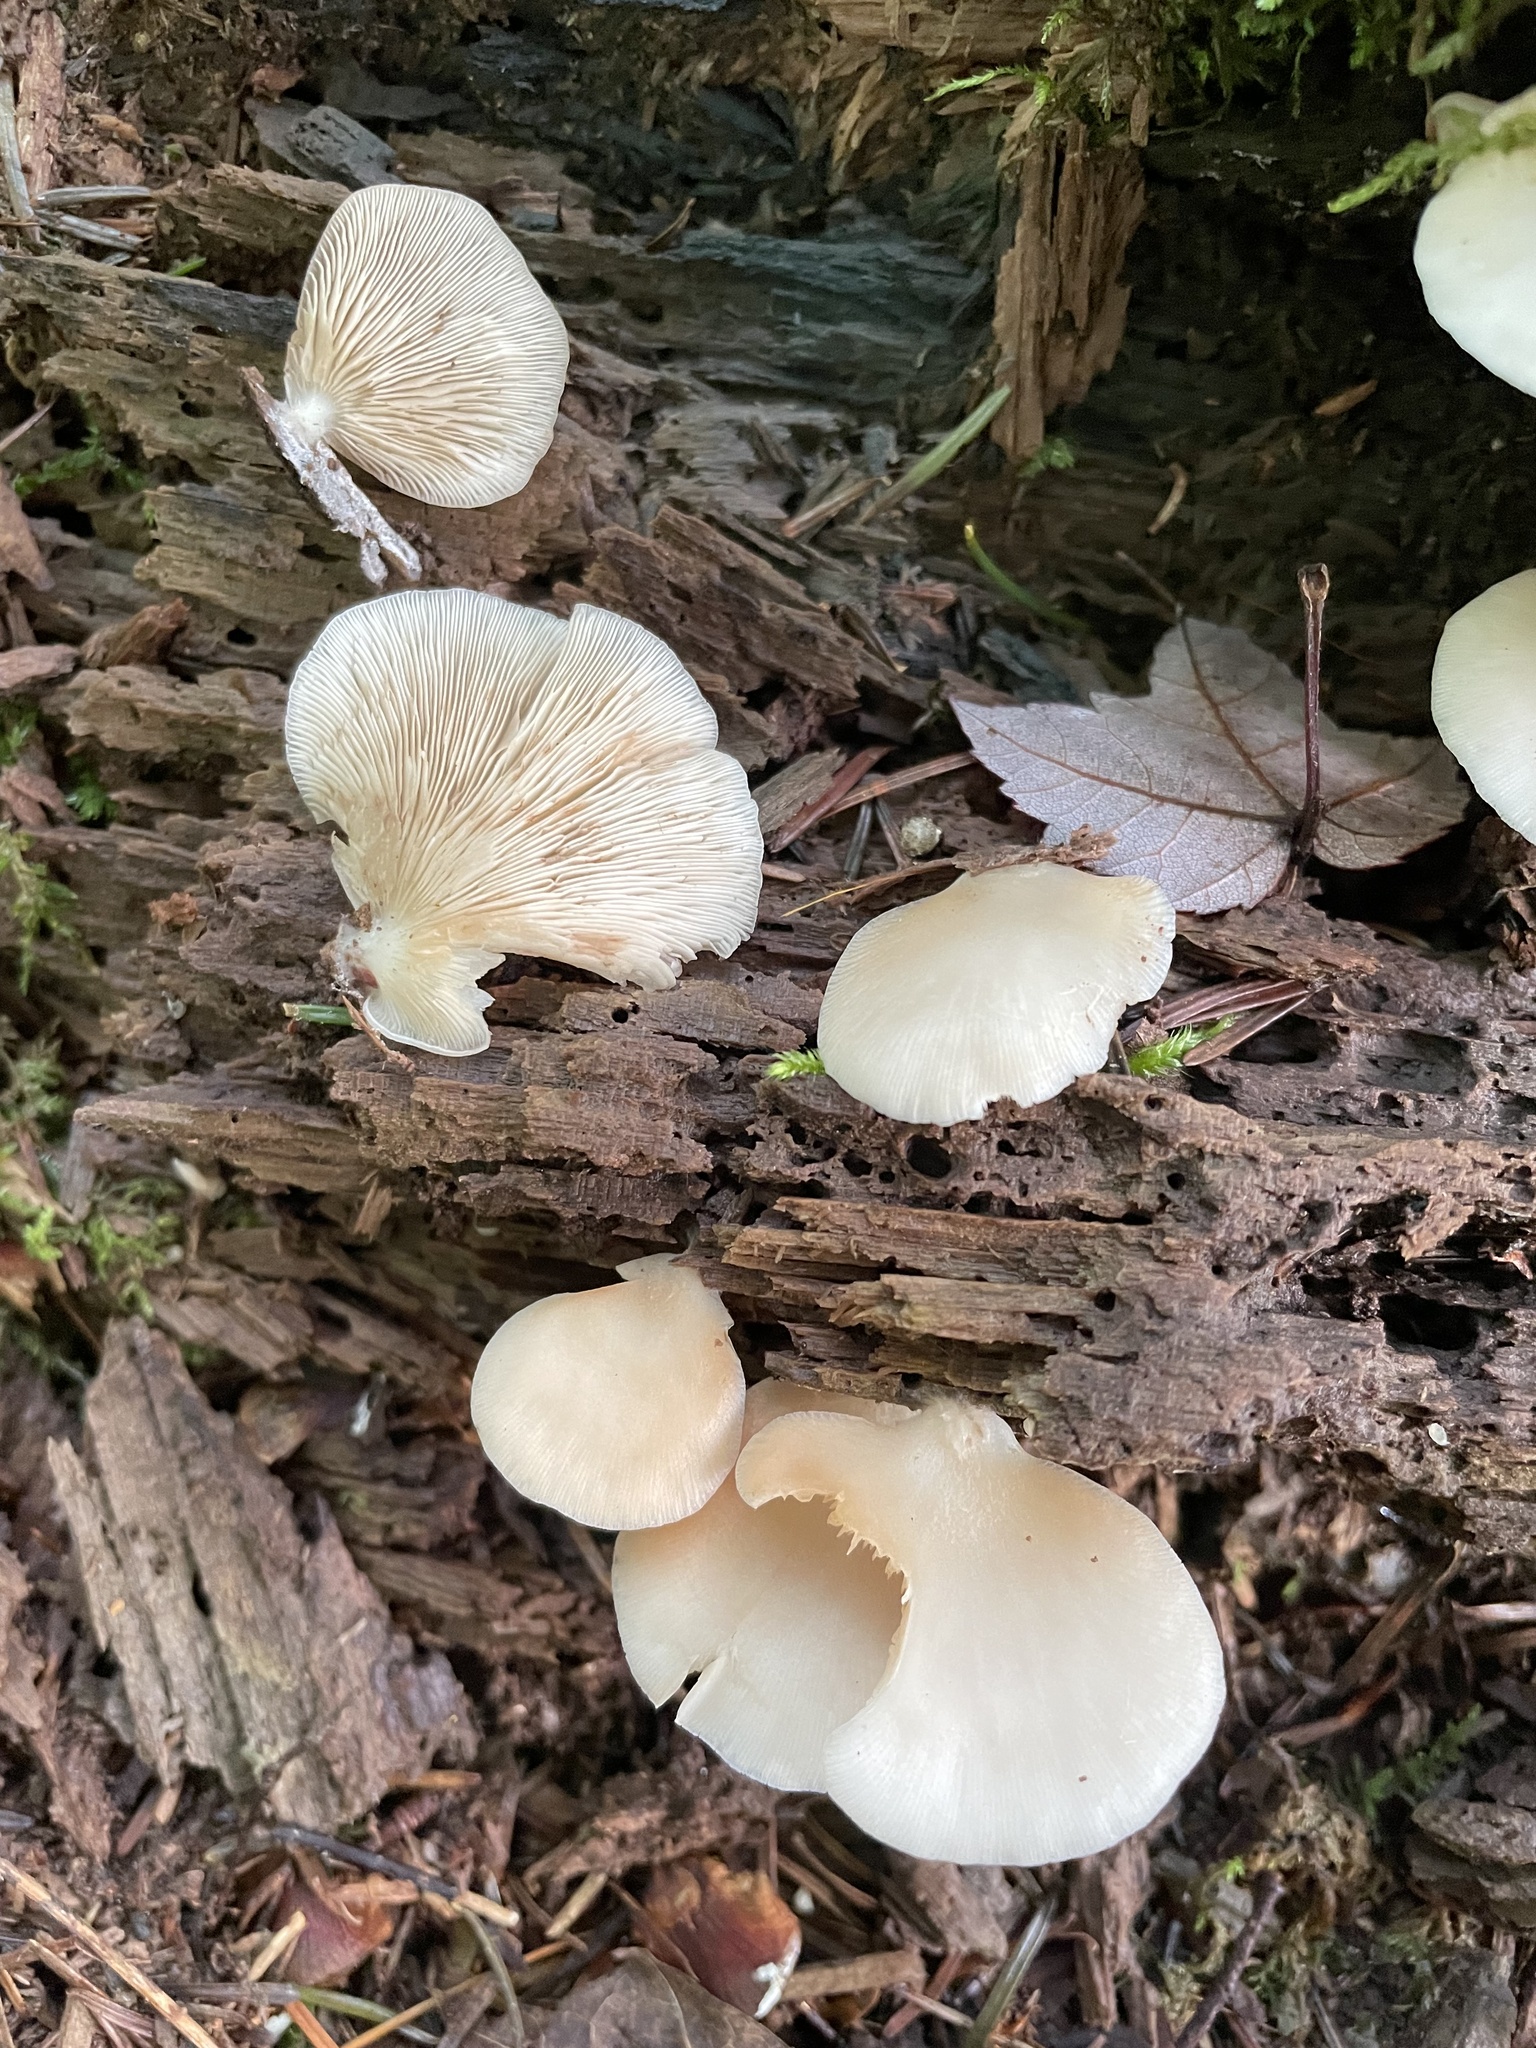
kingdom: Fungi
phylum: Basidiomycota
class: Agaricomycetes
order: Agaricales
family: Crepidotaceae
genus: Crepidotus
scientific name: Crepidotus applanatus
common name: Flat crep
